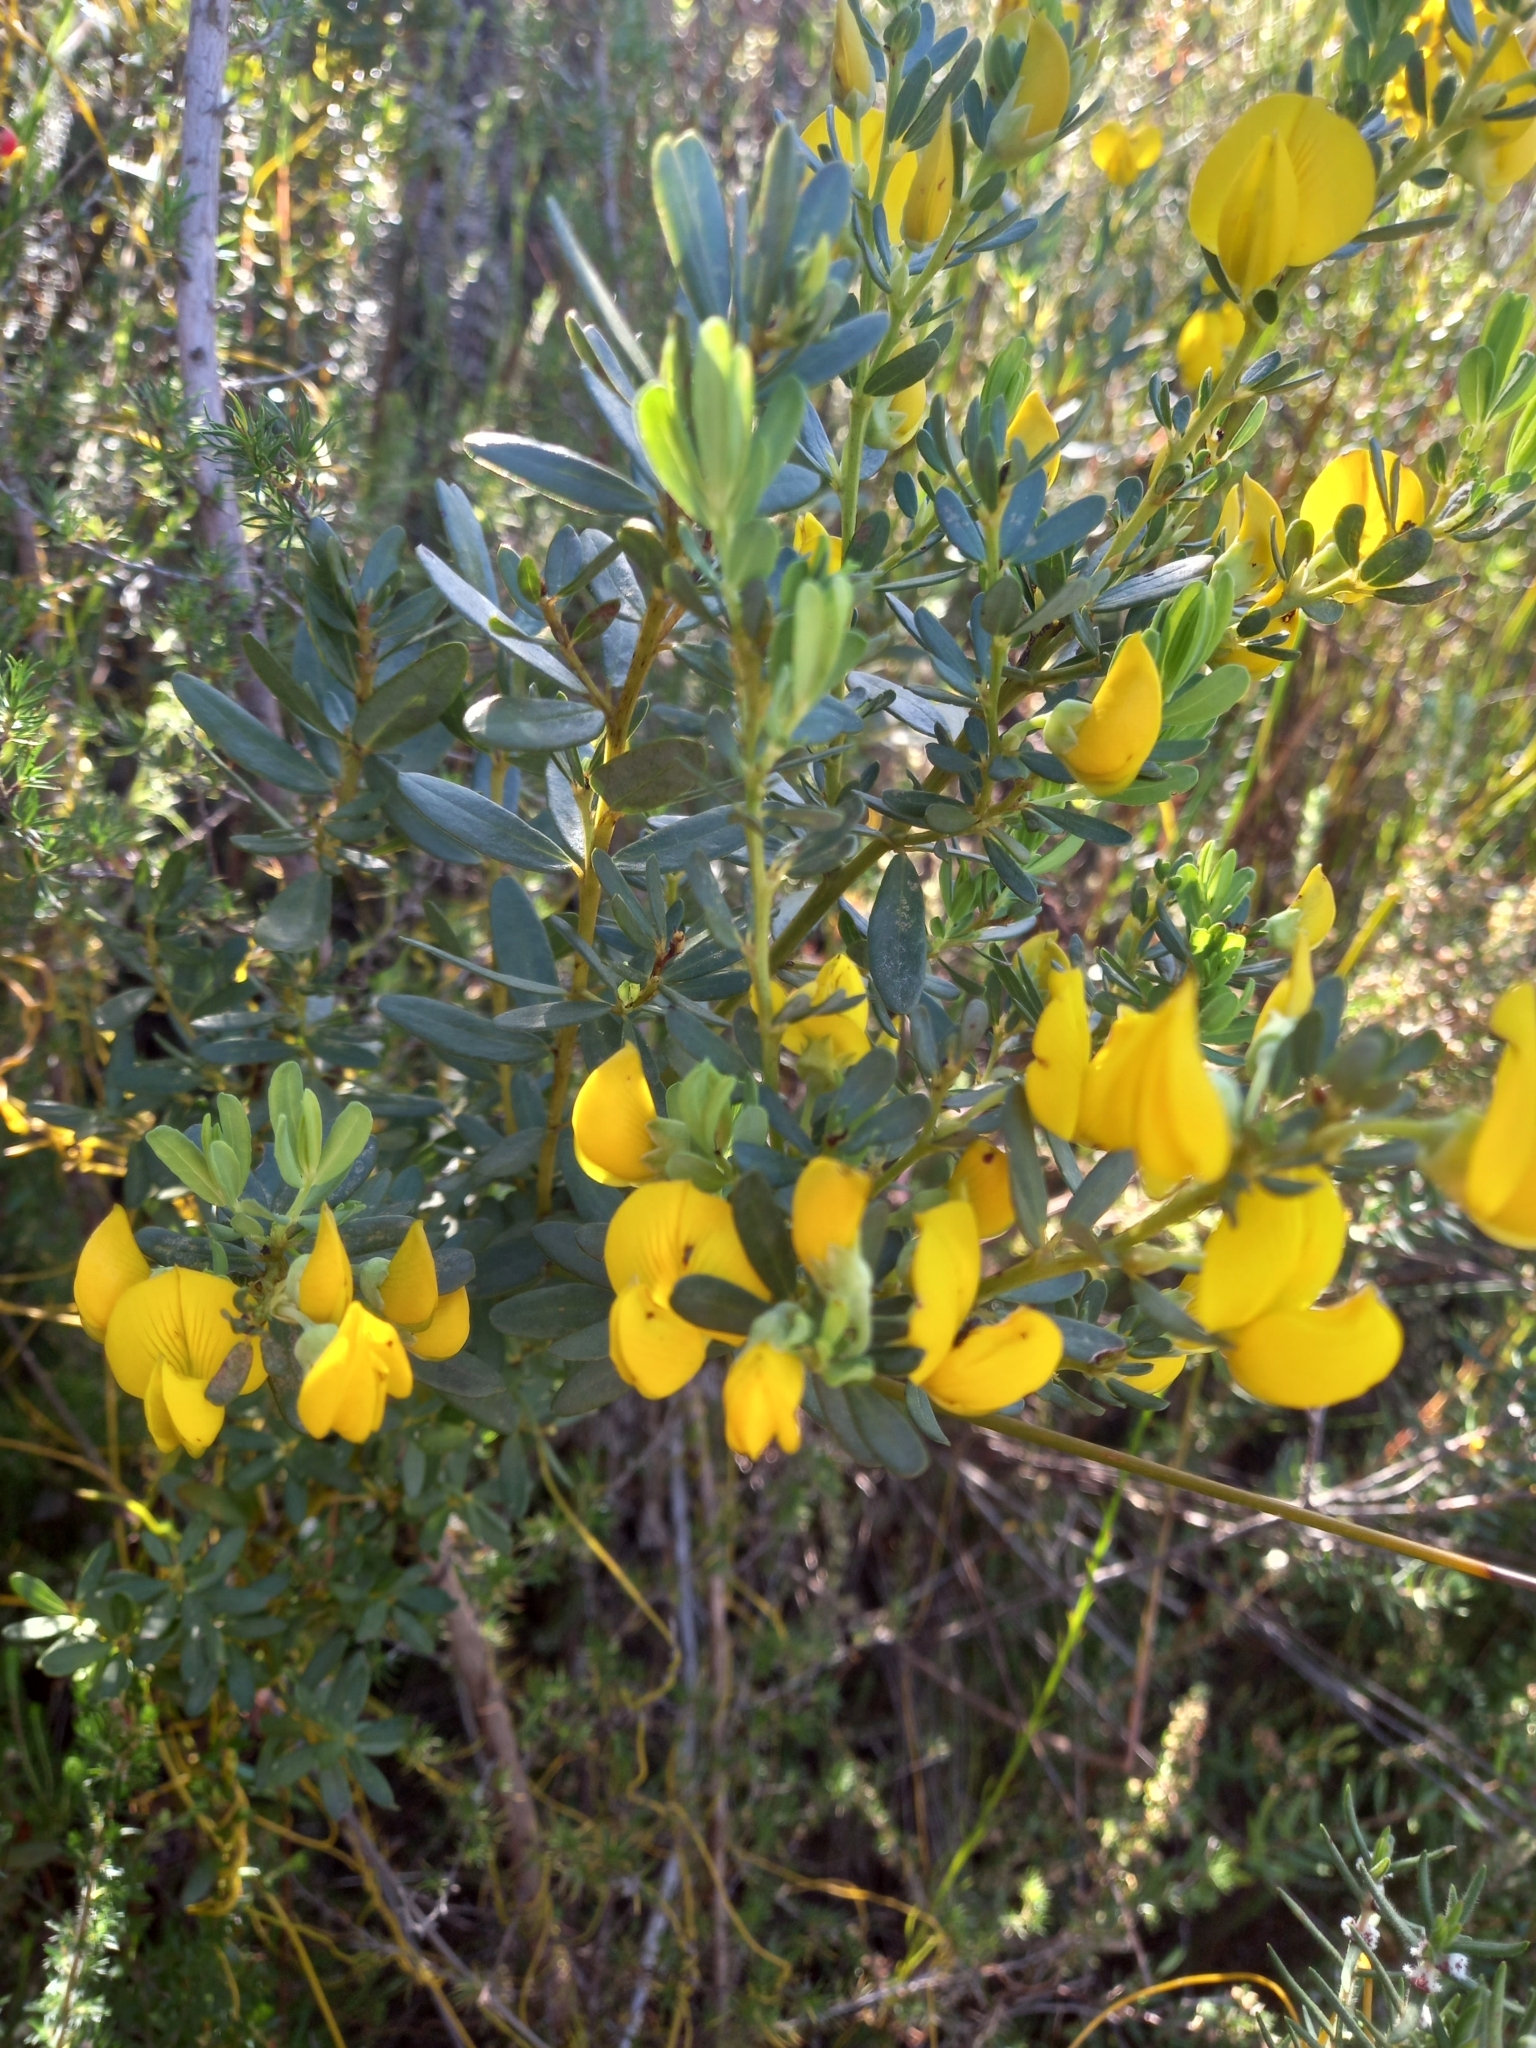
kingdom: Plantae
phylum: Tracheophyta
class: Magnoliopsida
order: Fabales
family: Fabaceae
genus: Cyclopia
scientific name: Cyclopia subternata
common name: Honeybush tea
